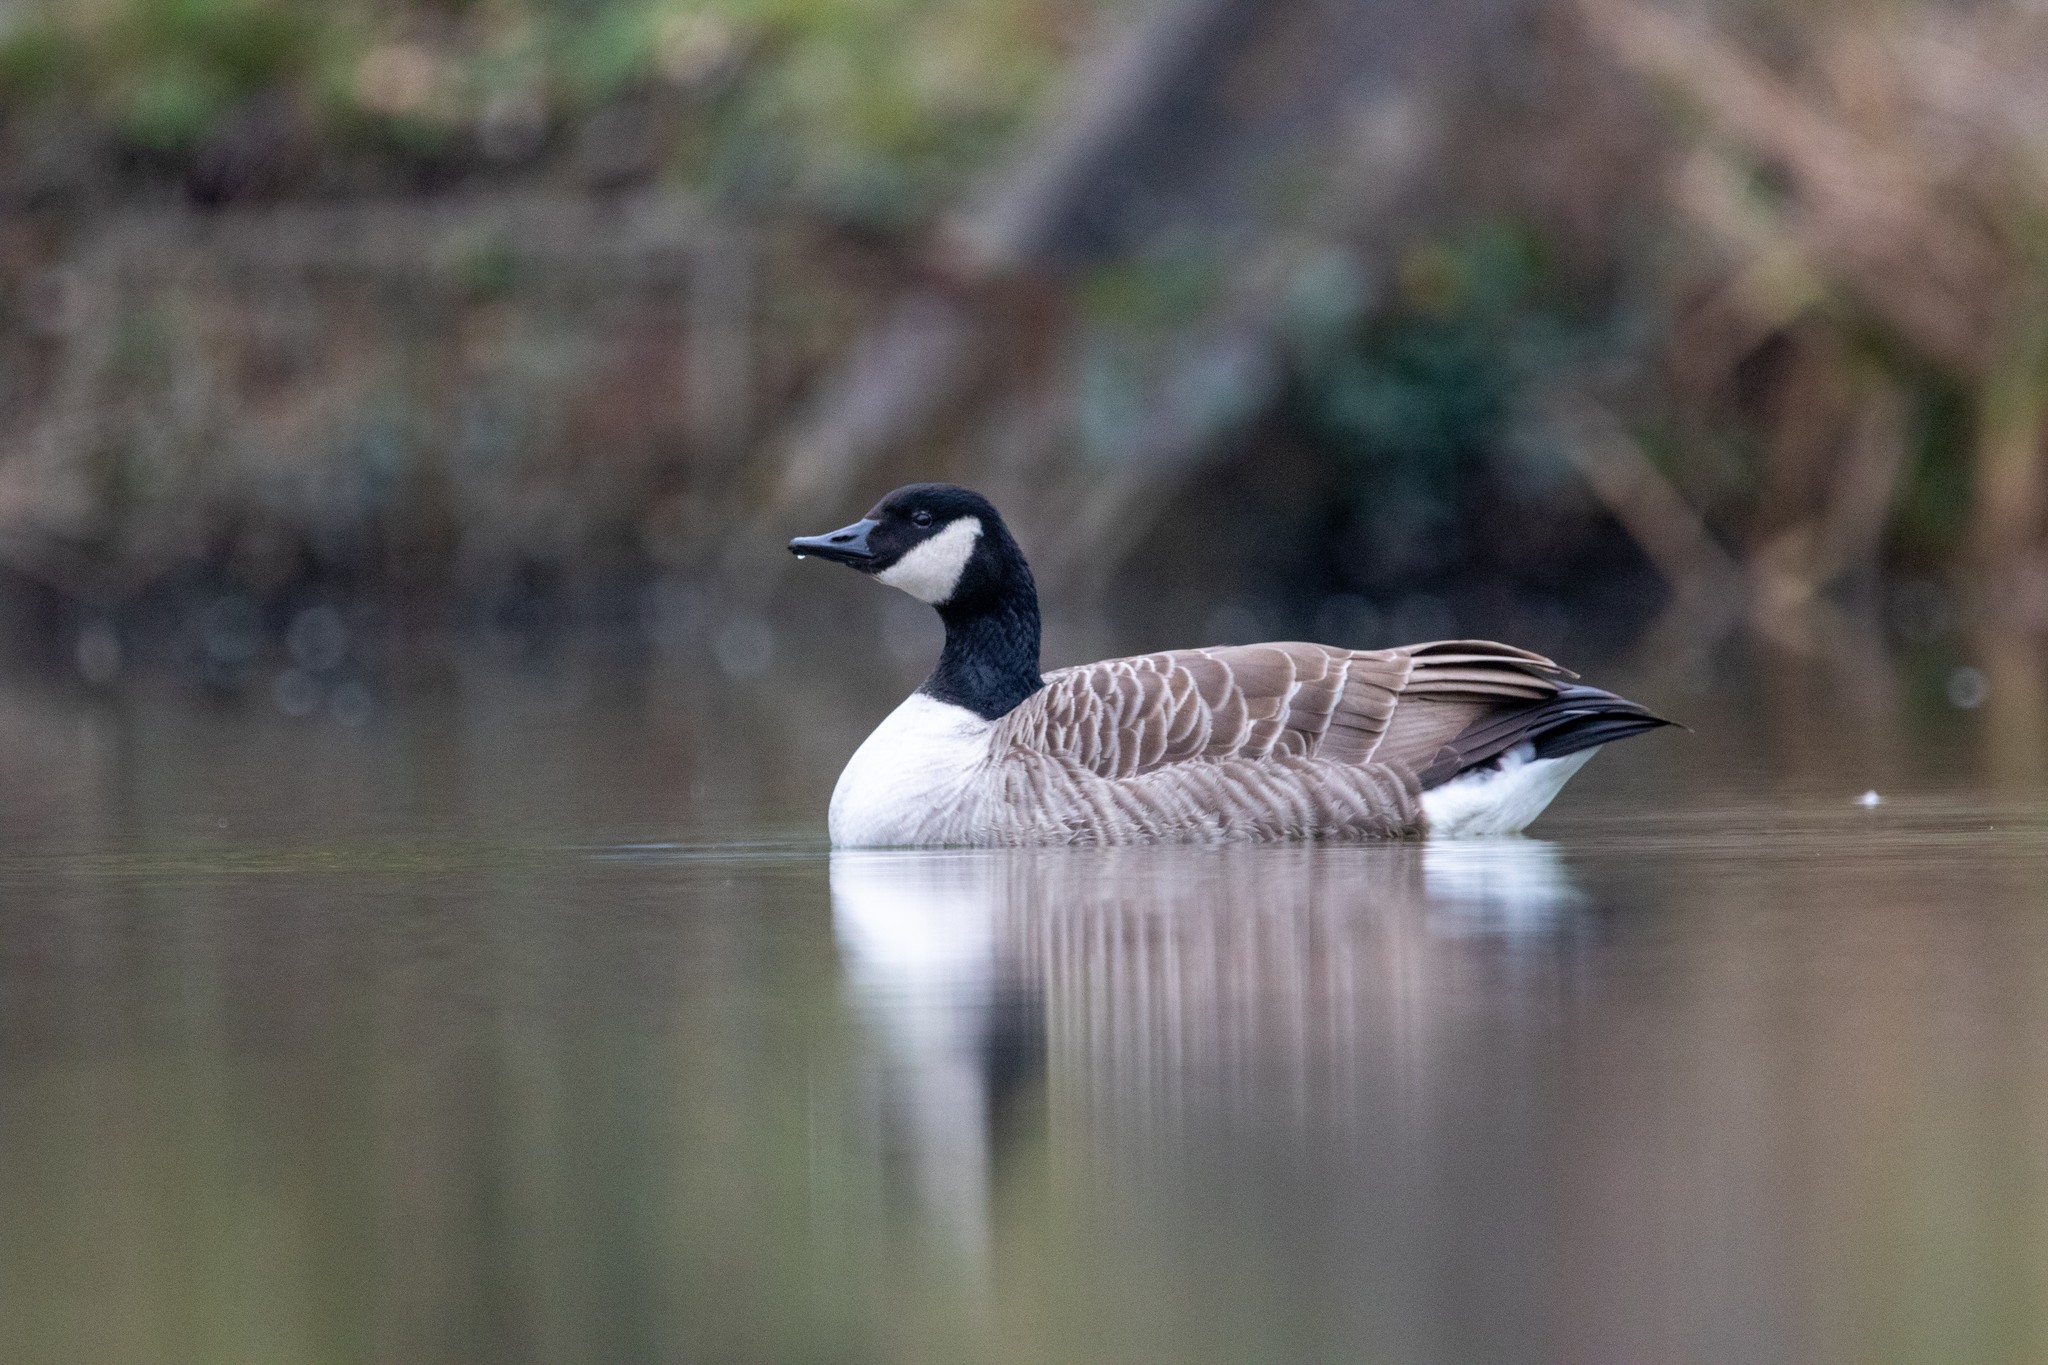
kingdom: Animalia
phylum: Chordata
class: Aves
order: Anseriformes
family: Anatidae
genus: Branta
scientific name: Branta canadensis
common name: Canada goose
